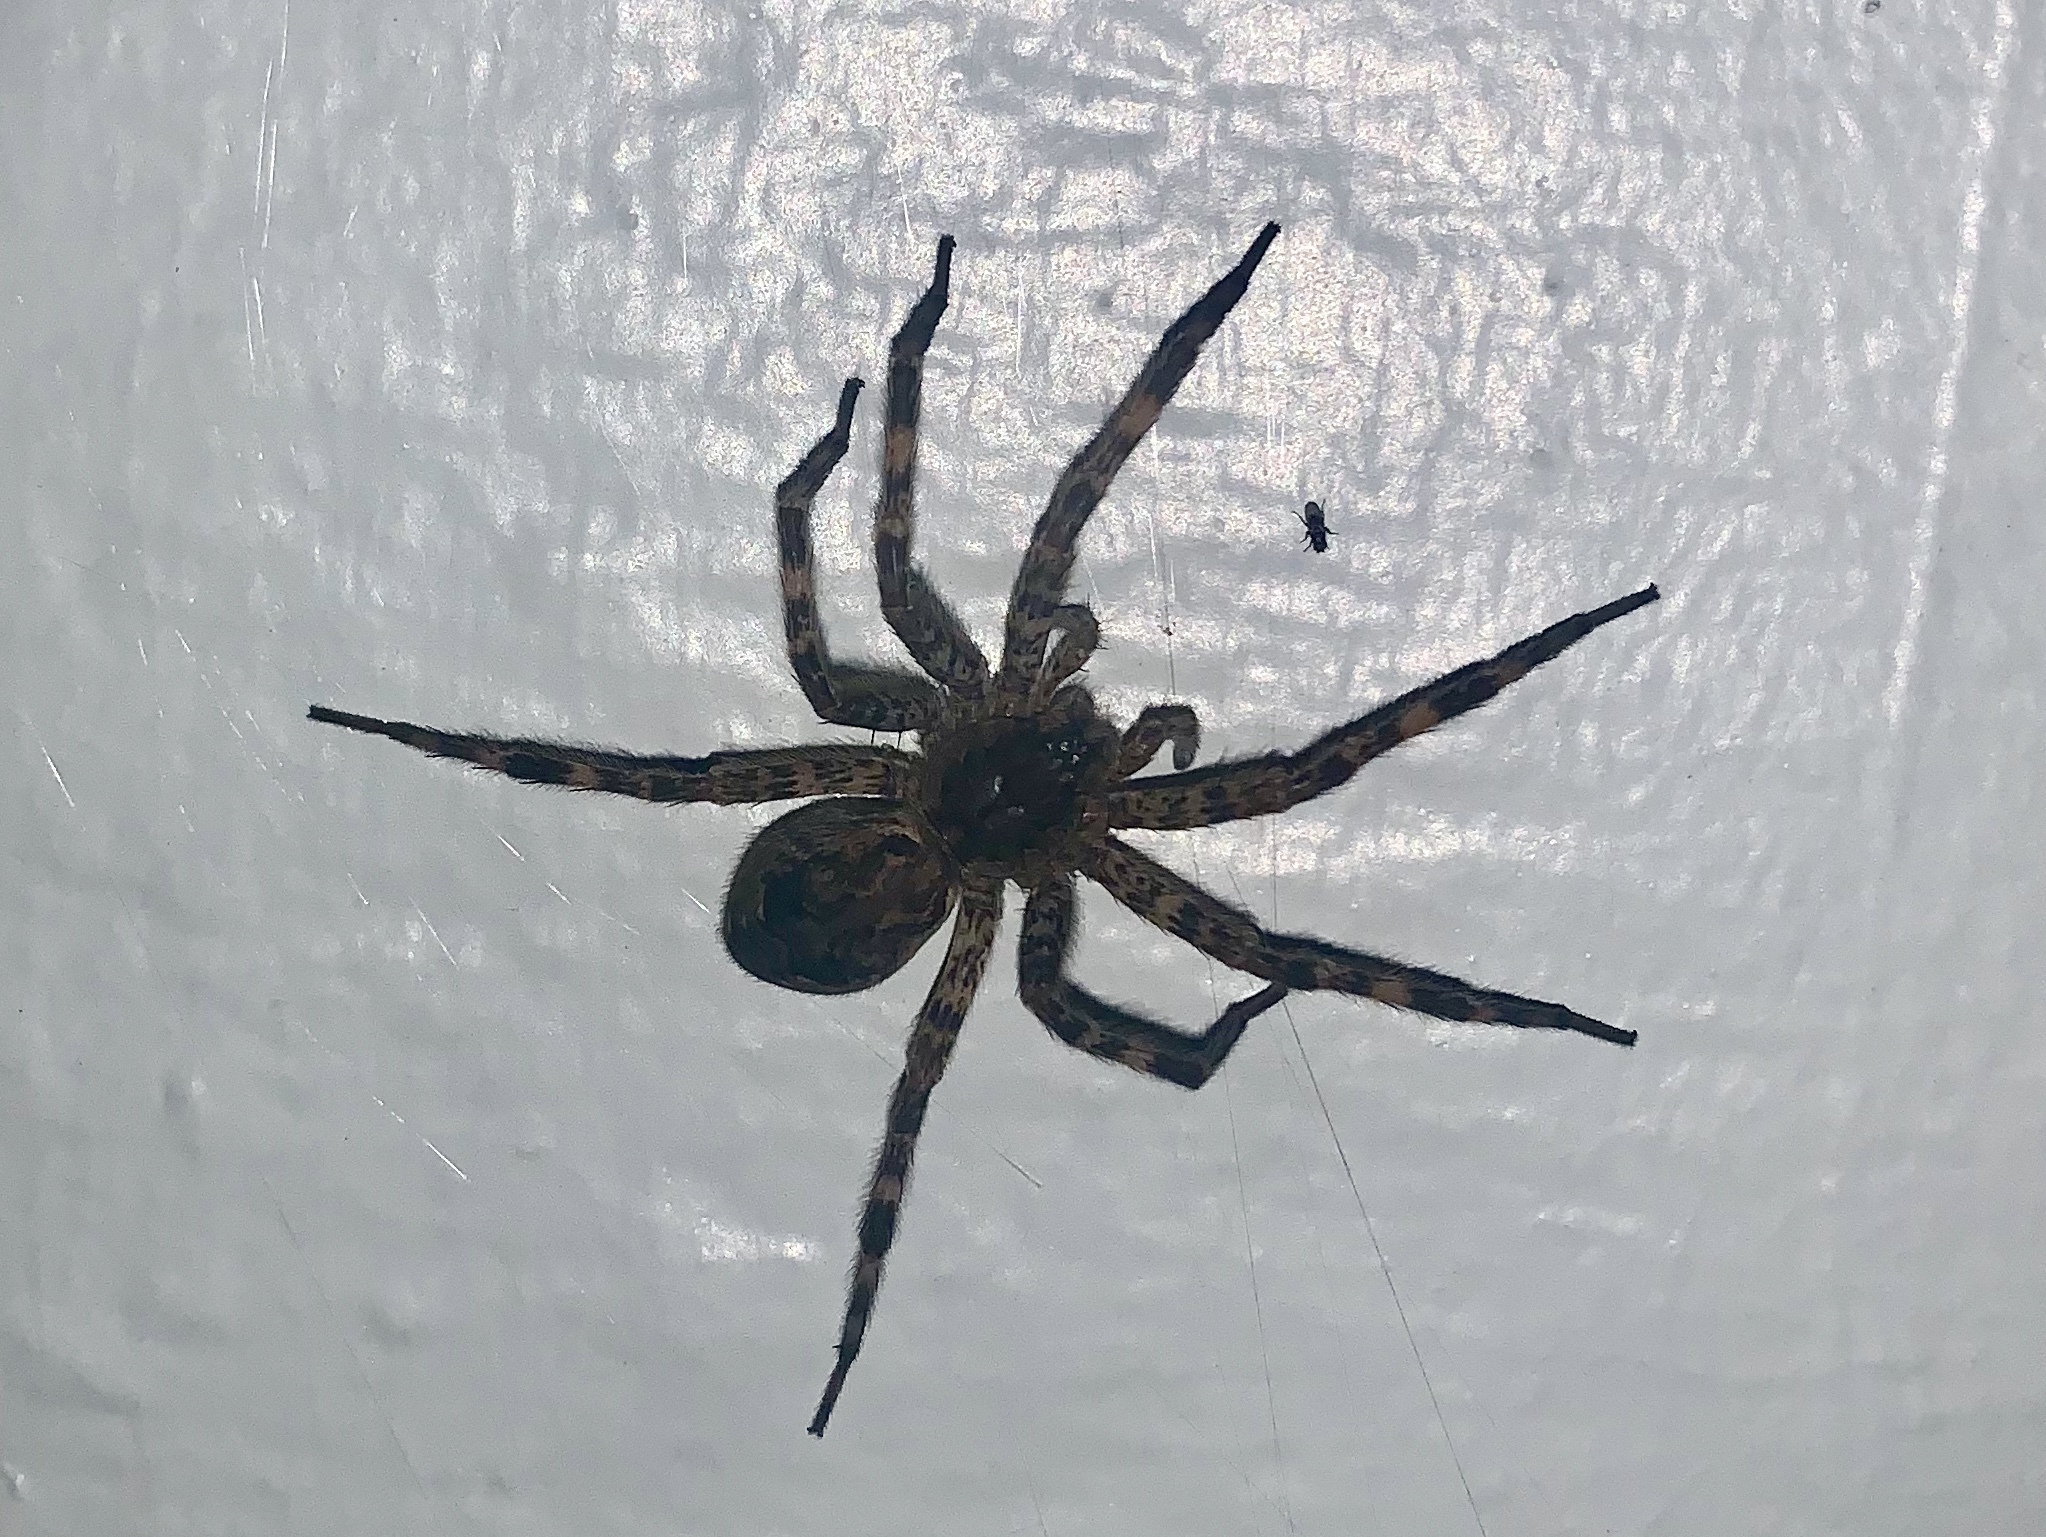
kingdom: Animalia
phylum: Arthropoda
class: Arachnida
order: Araneae
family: Pisauridae
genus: Dolomedes
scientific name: Dolomedes tenebrosus
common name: Dark fishing spider
